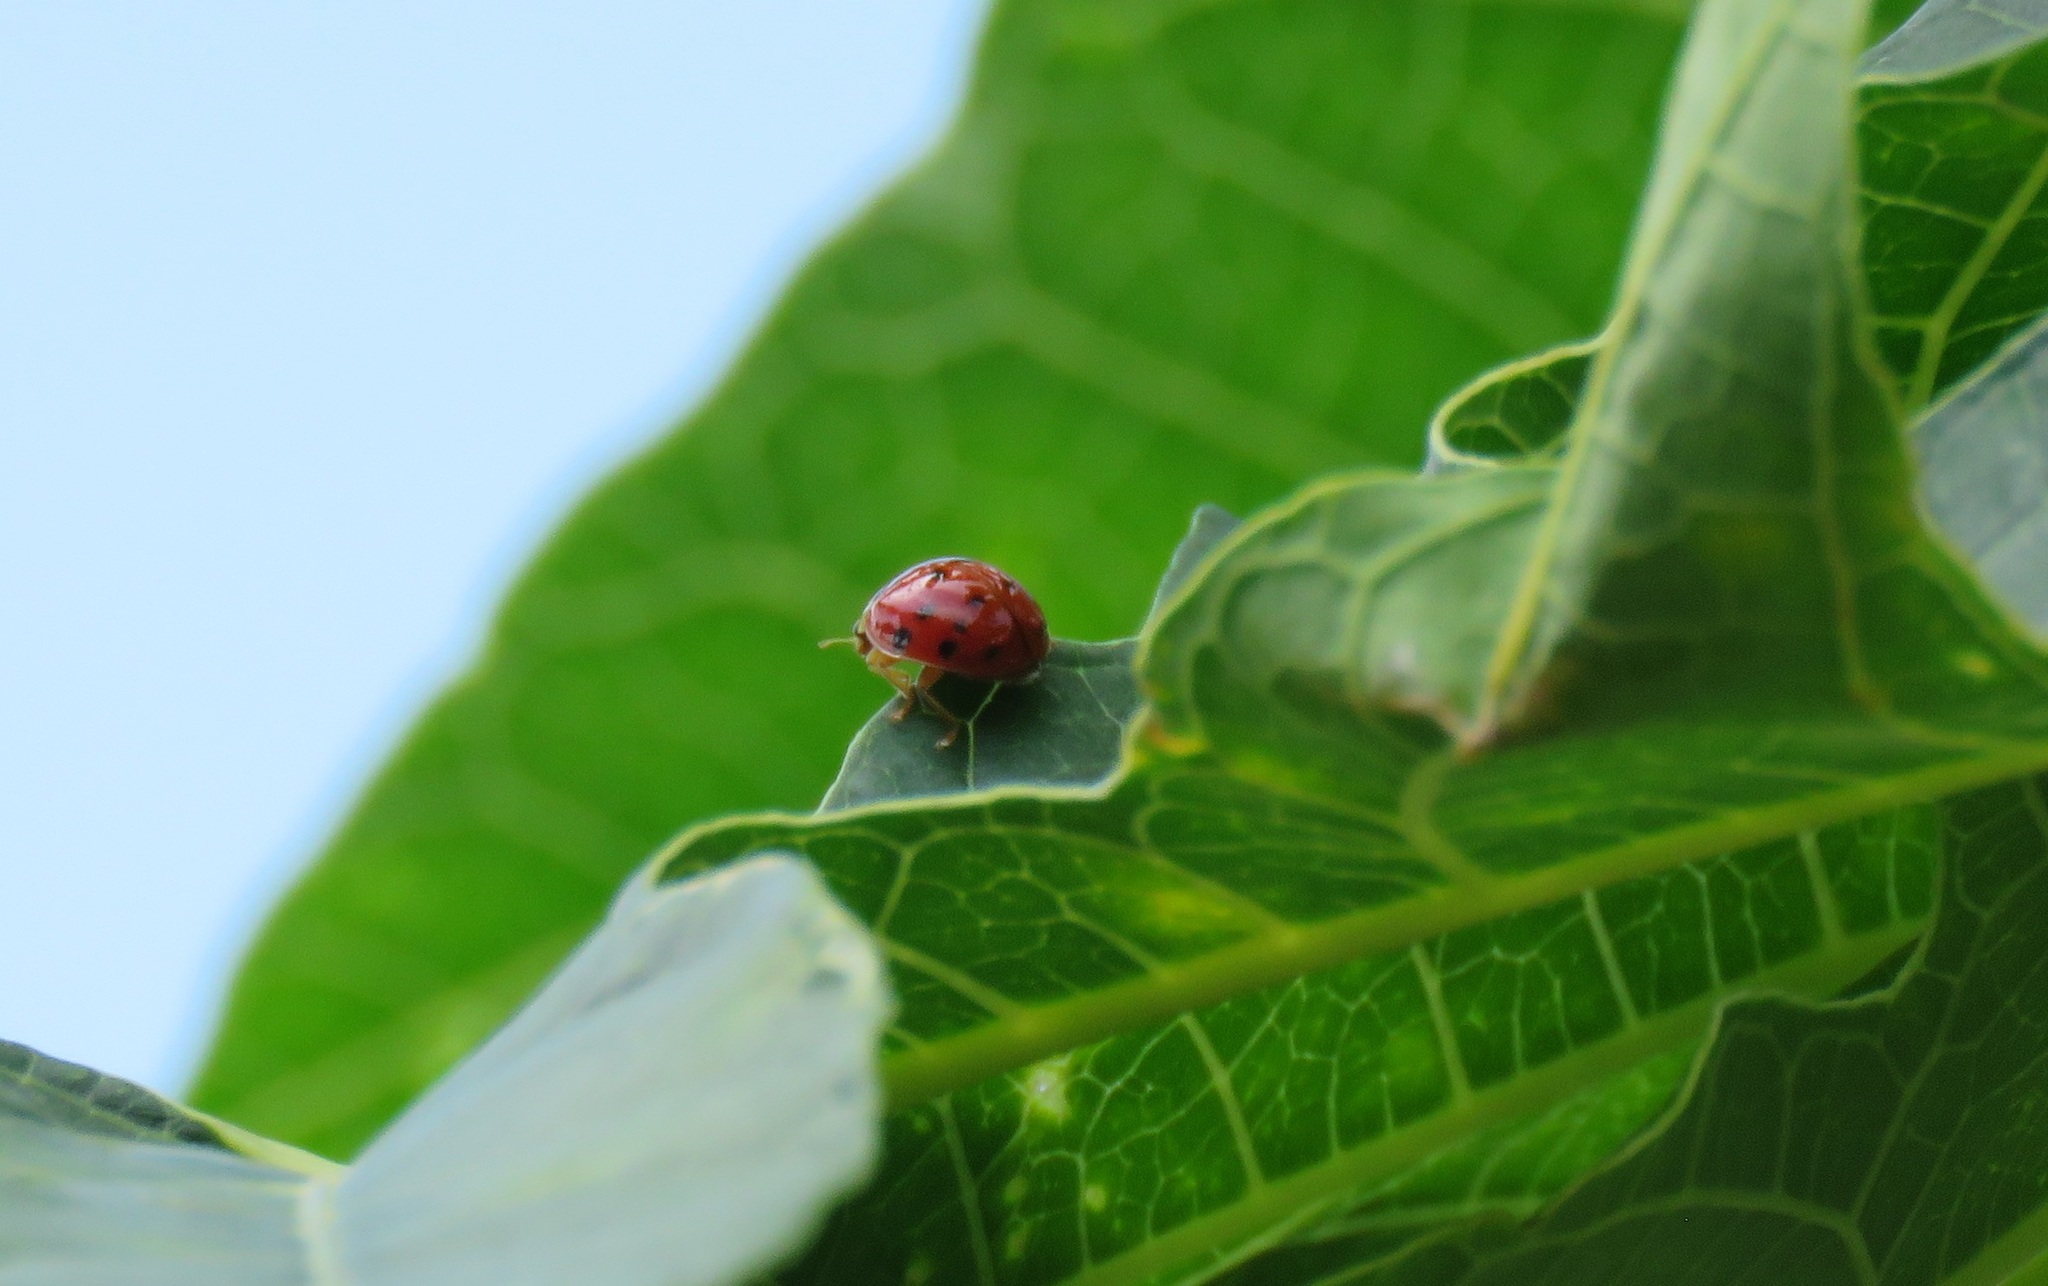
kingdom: Animalia
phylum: Arthropoda
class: Insecta
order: Coleoptera
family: Coccinellidae
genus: Harmonia
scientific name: Harmonia axyridis
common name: Harlequin ladybird
